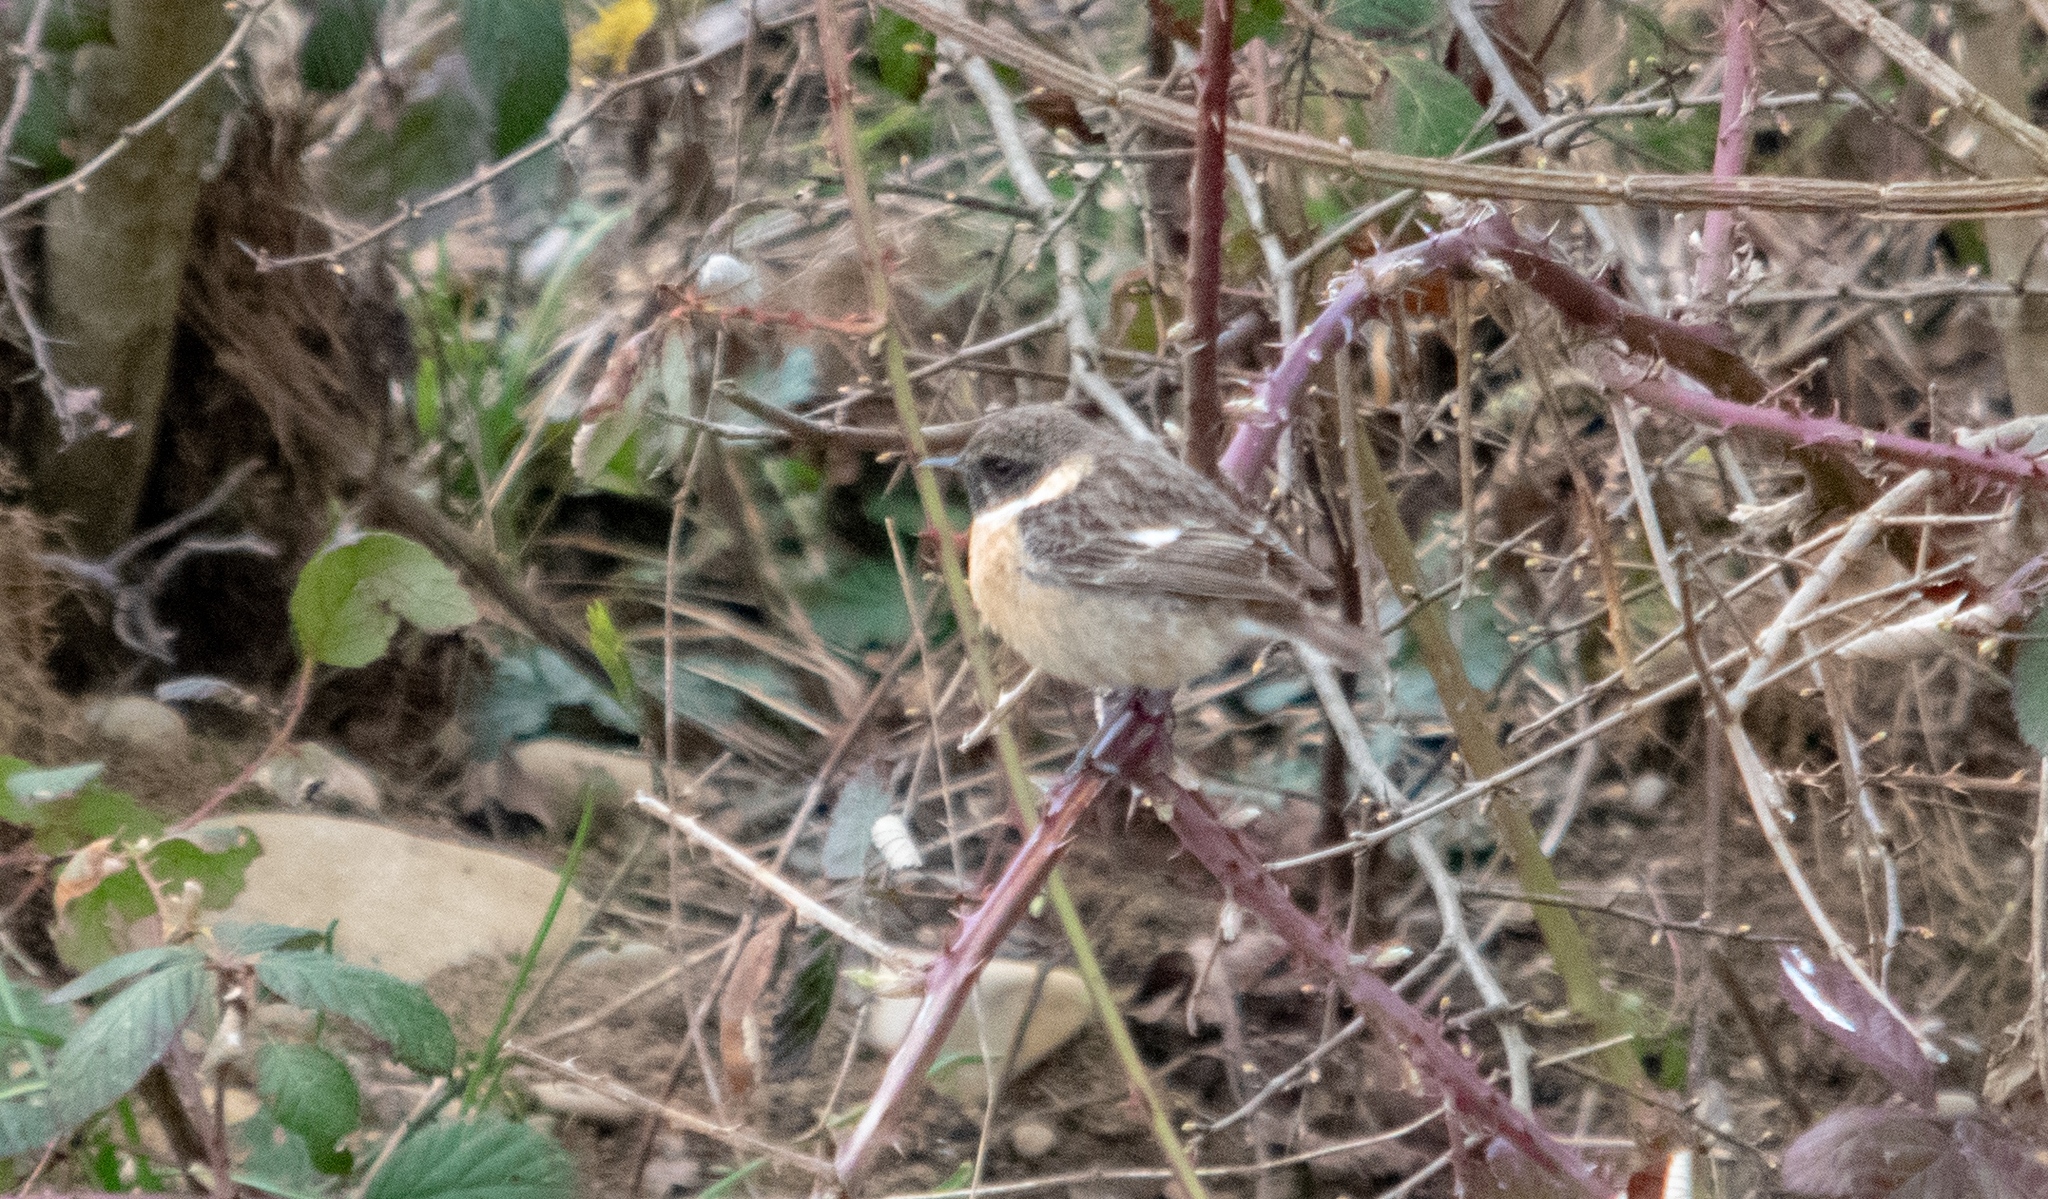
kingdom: Animalia
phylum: Chordata
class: Aves
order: Passeriformes
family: Muscicapidae
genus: Saxicola
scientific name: Saxicola rubicola
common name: European stonechat
